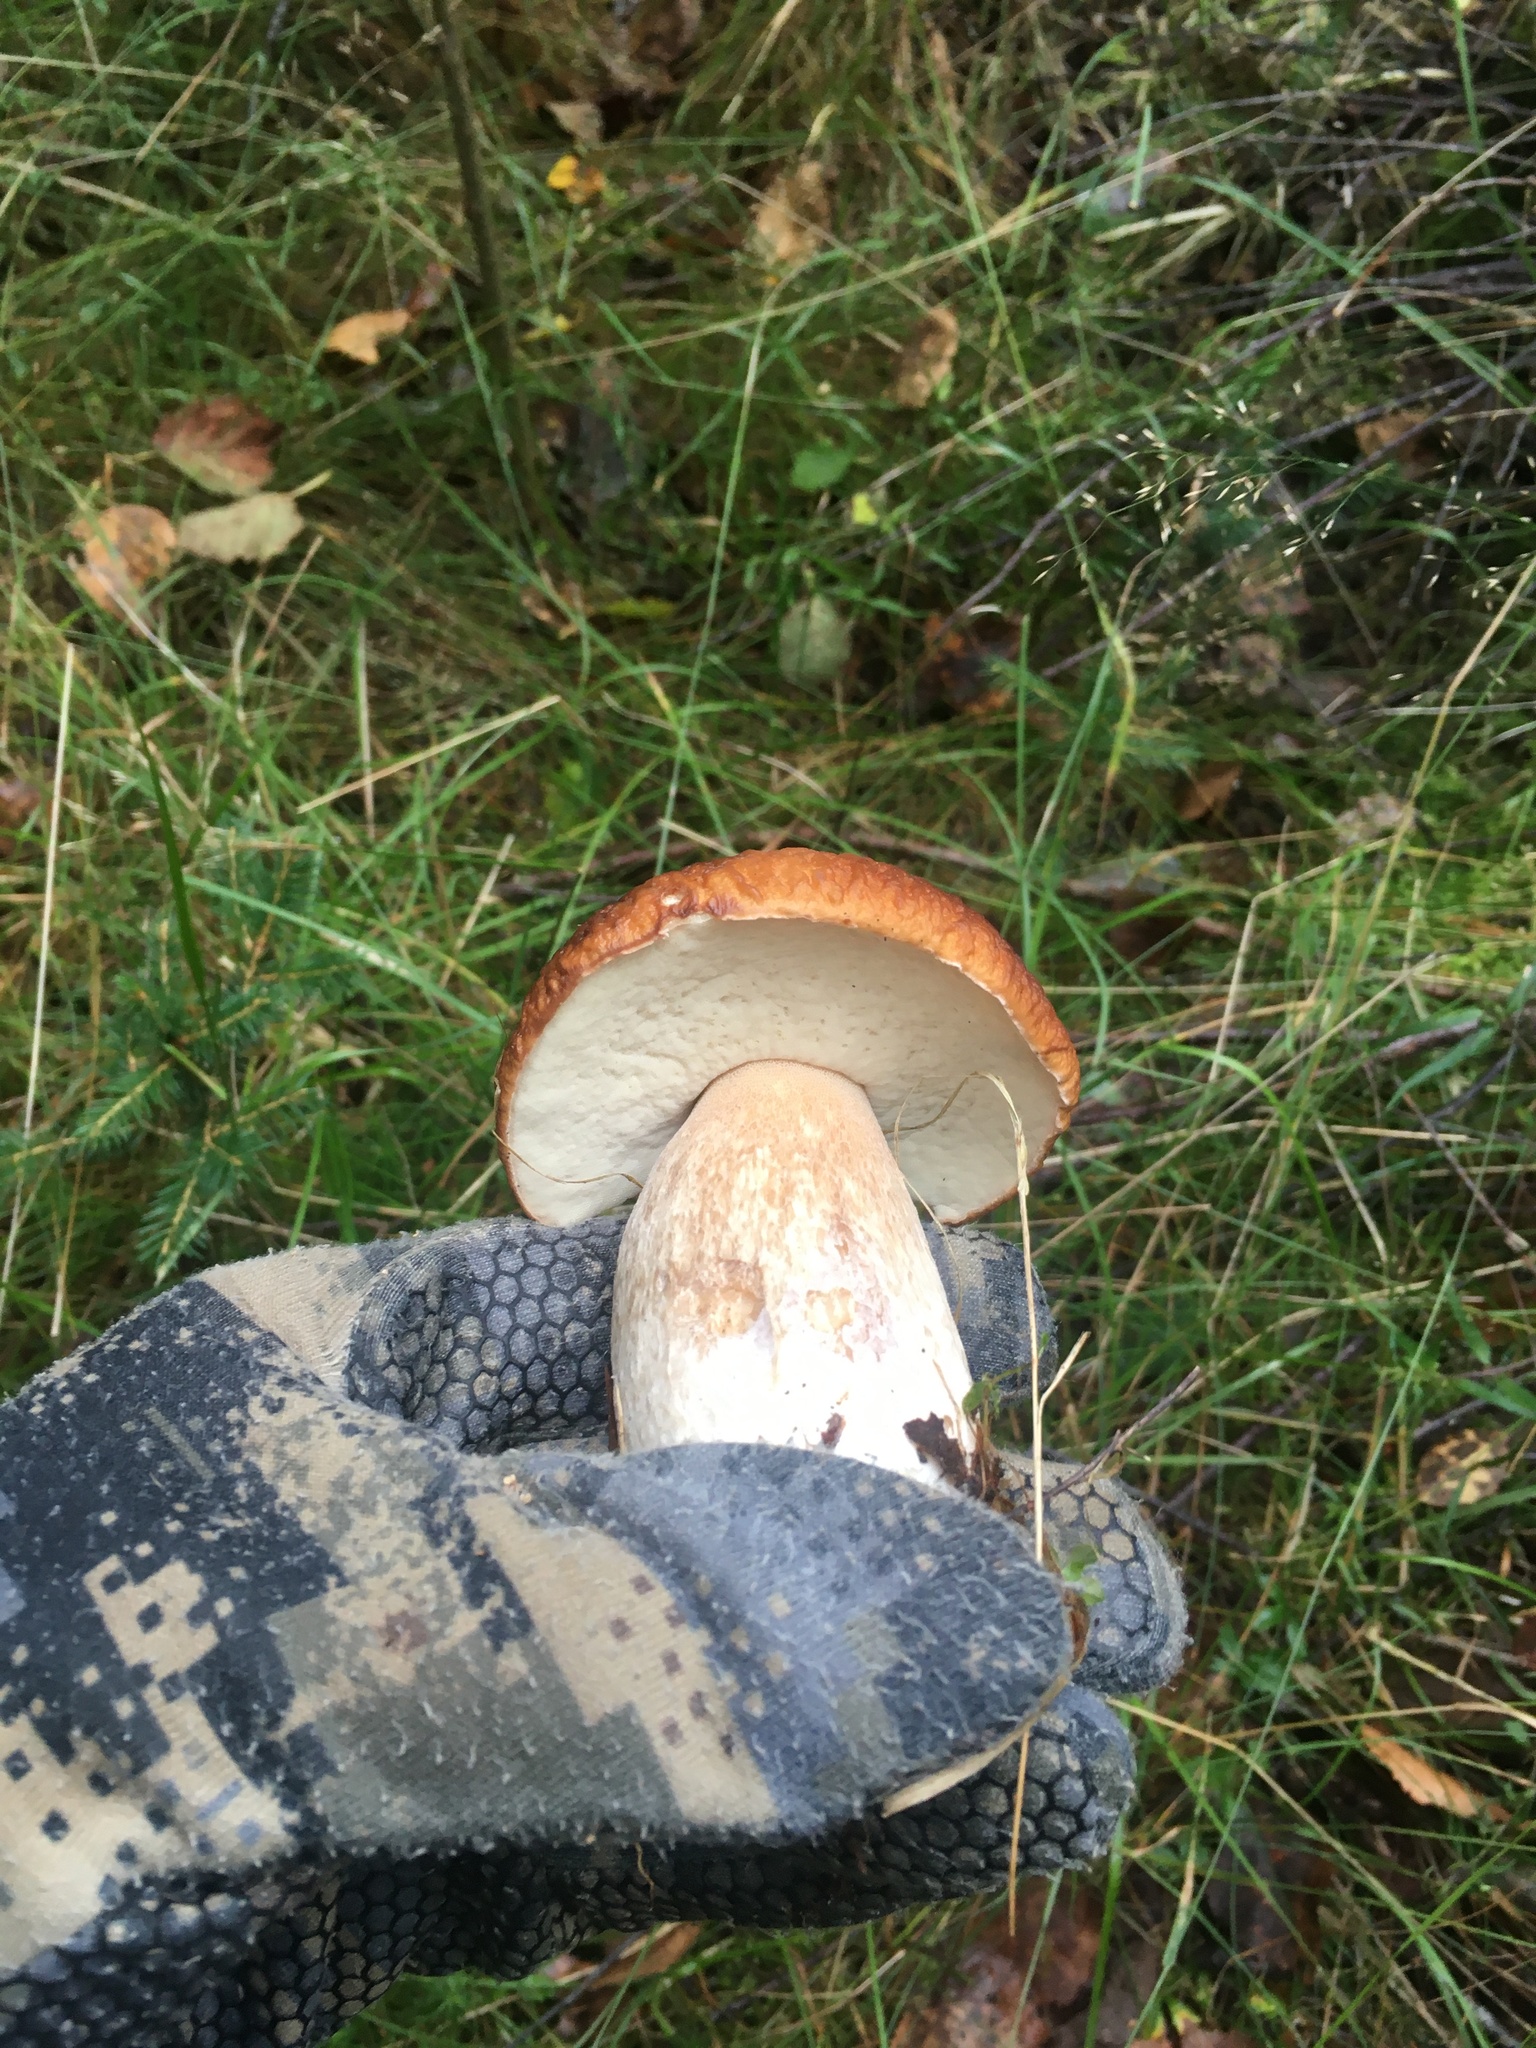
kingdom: Fungi
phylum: Basidiomycota
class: Agaricomycetes
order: Boletales
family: Boletaceae
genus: Boletus
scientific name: Boletus edulis
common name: Cep
